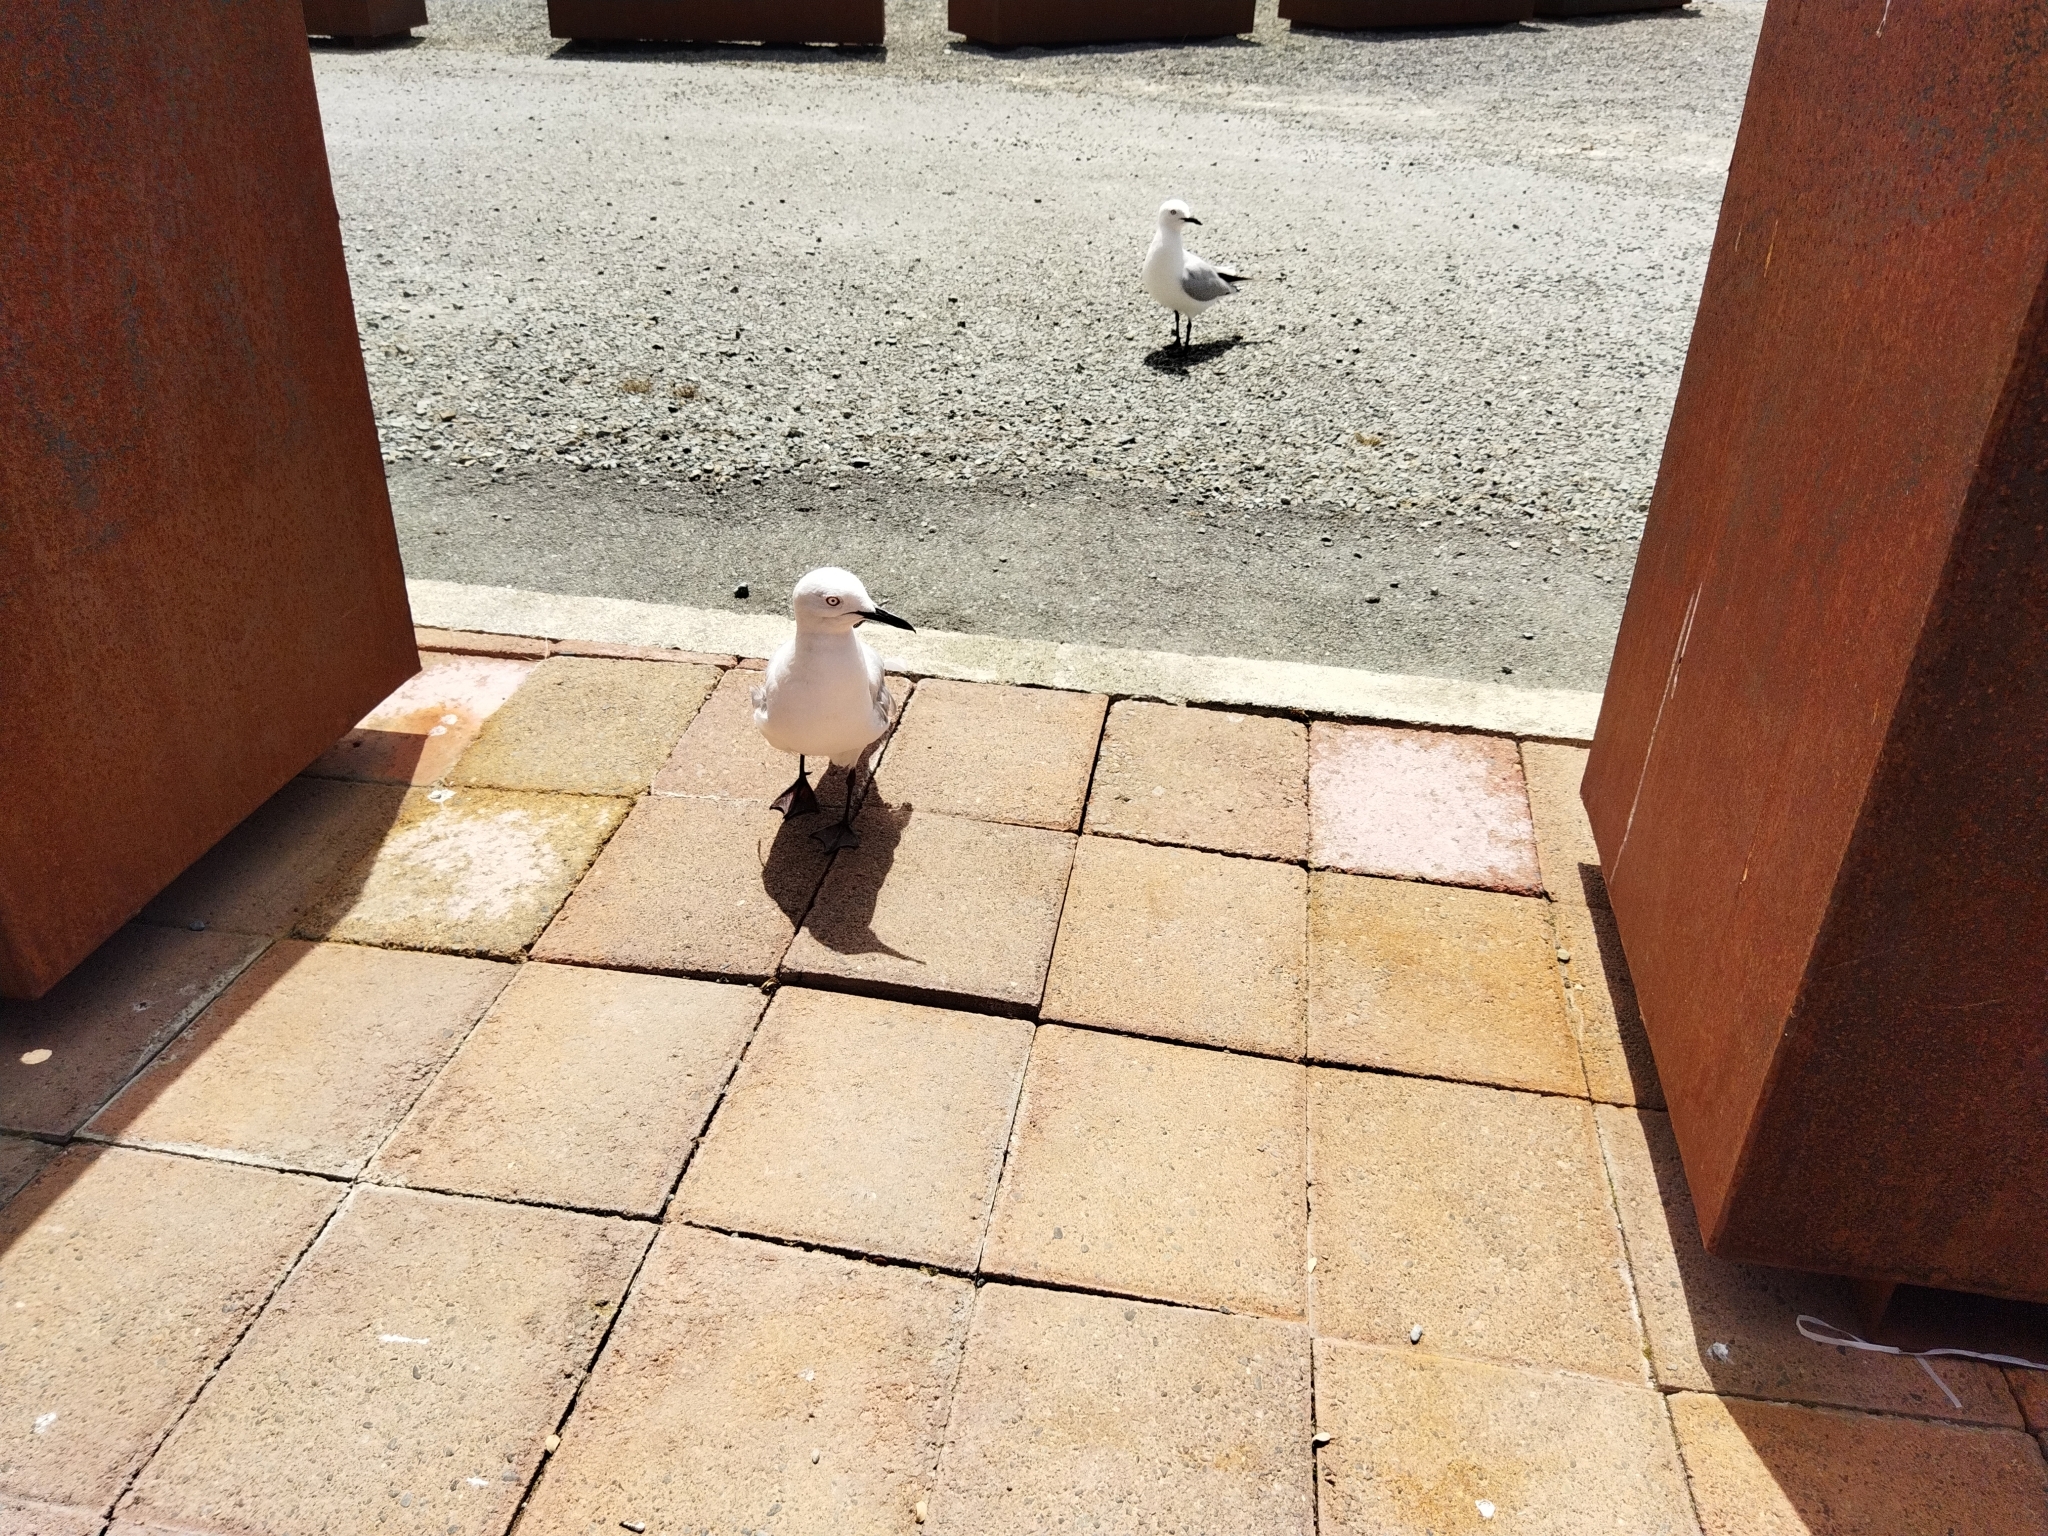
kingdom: Animalia
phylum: Chordata
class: Aves
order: Charadriiformes
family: Laridae
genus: Chroicocephalus
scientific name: Chroicocephalus bulleri
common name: Black-billed gull
